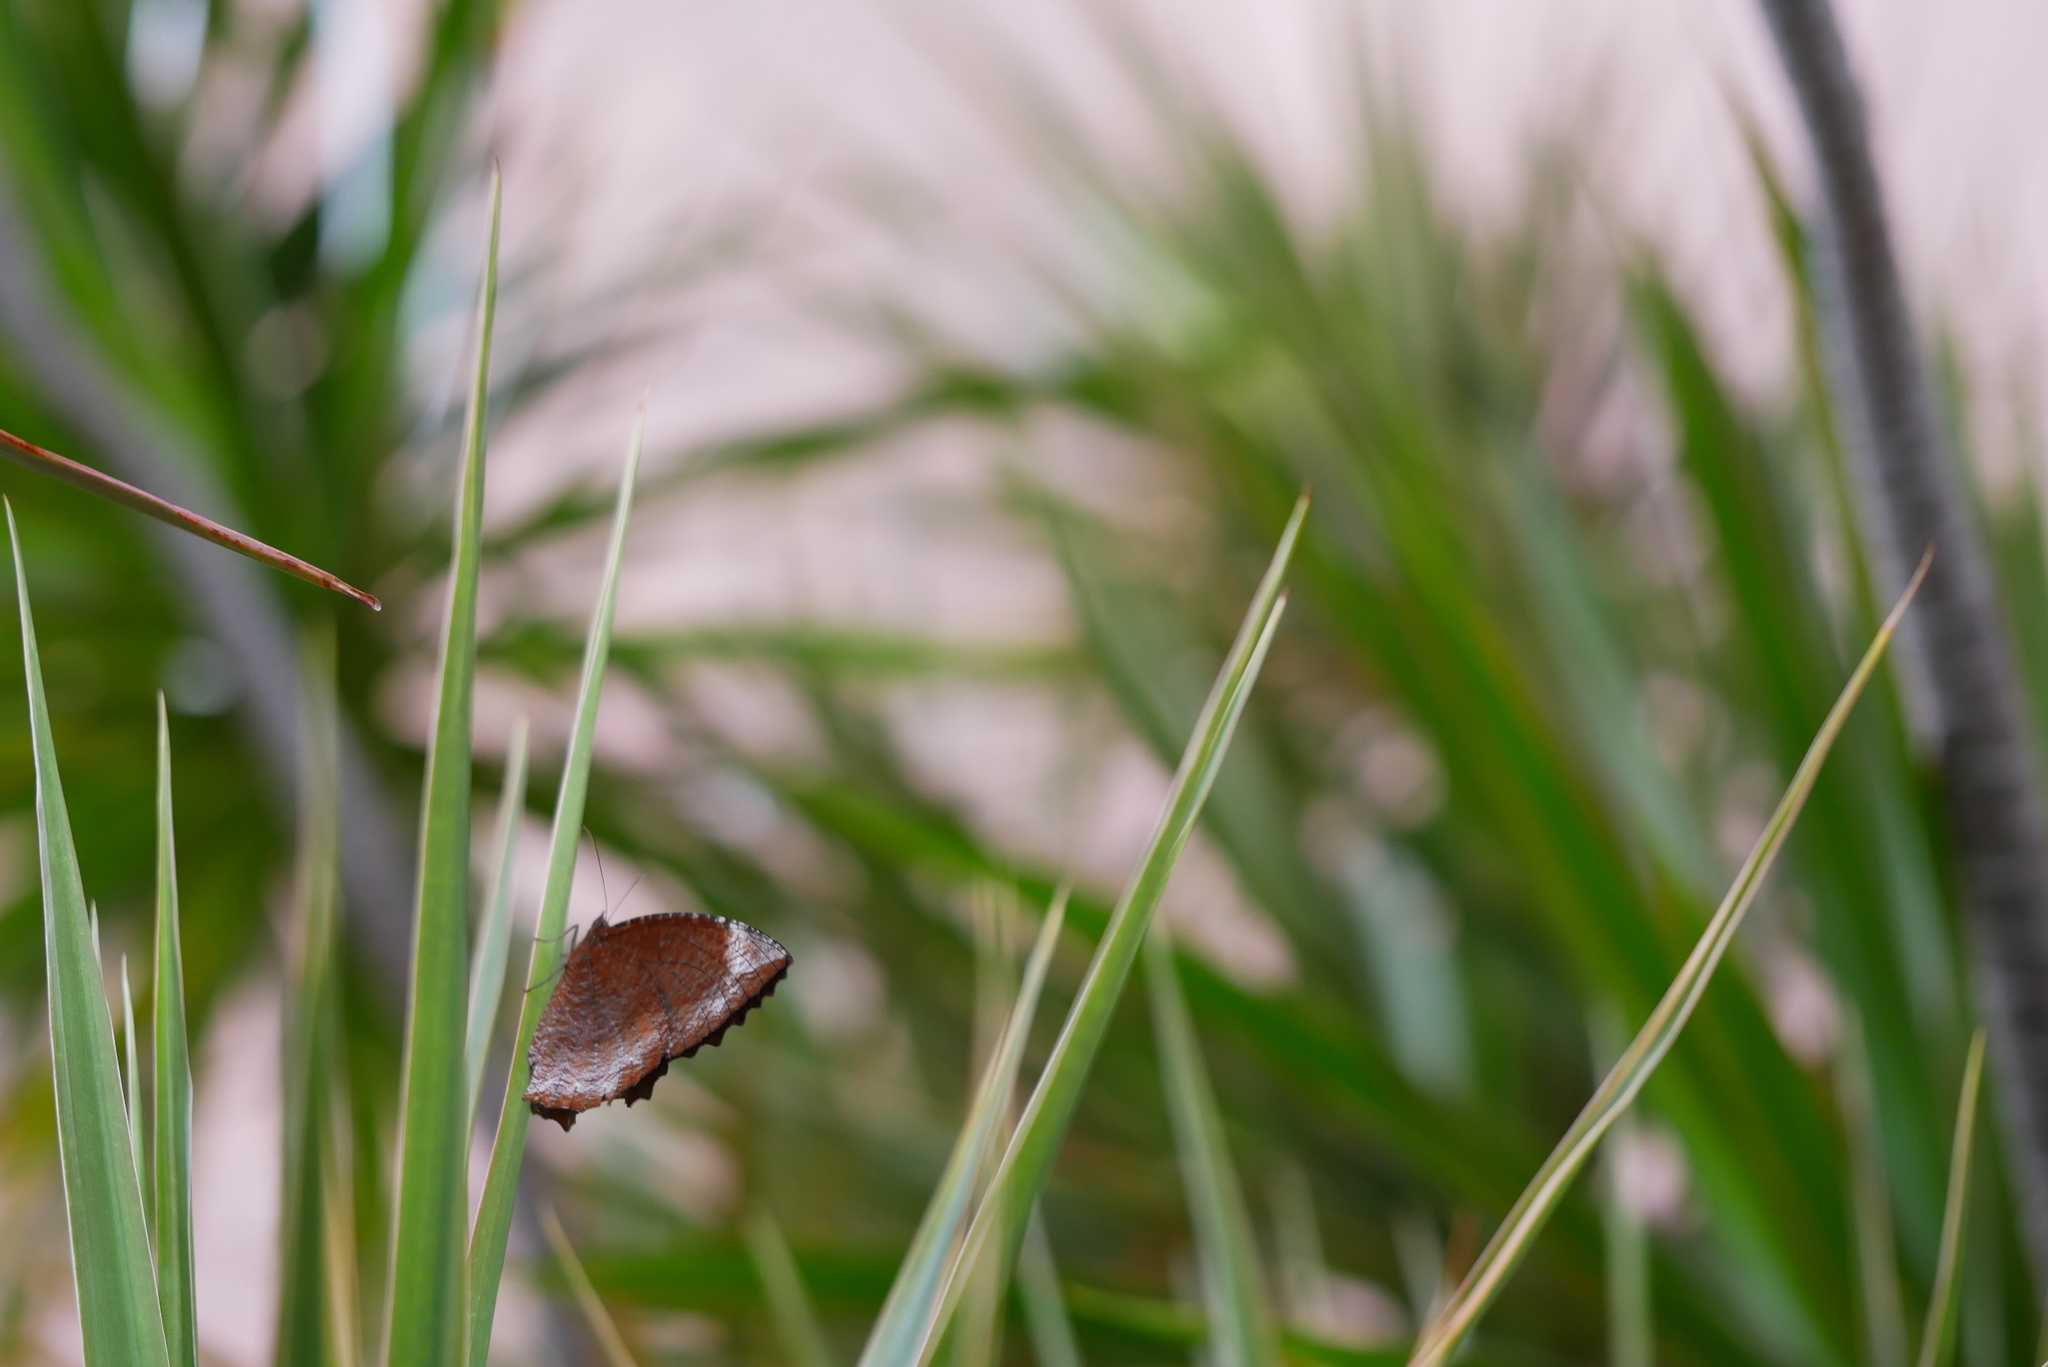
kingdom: Animalia
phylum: Arthropoda
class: Insecta
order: Lepidoptera
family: Nymphalidae
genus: Elymnias
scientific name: Elymnias hypermnestra
